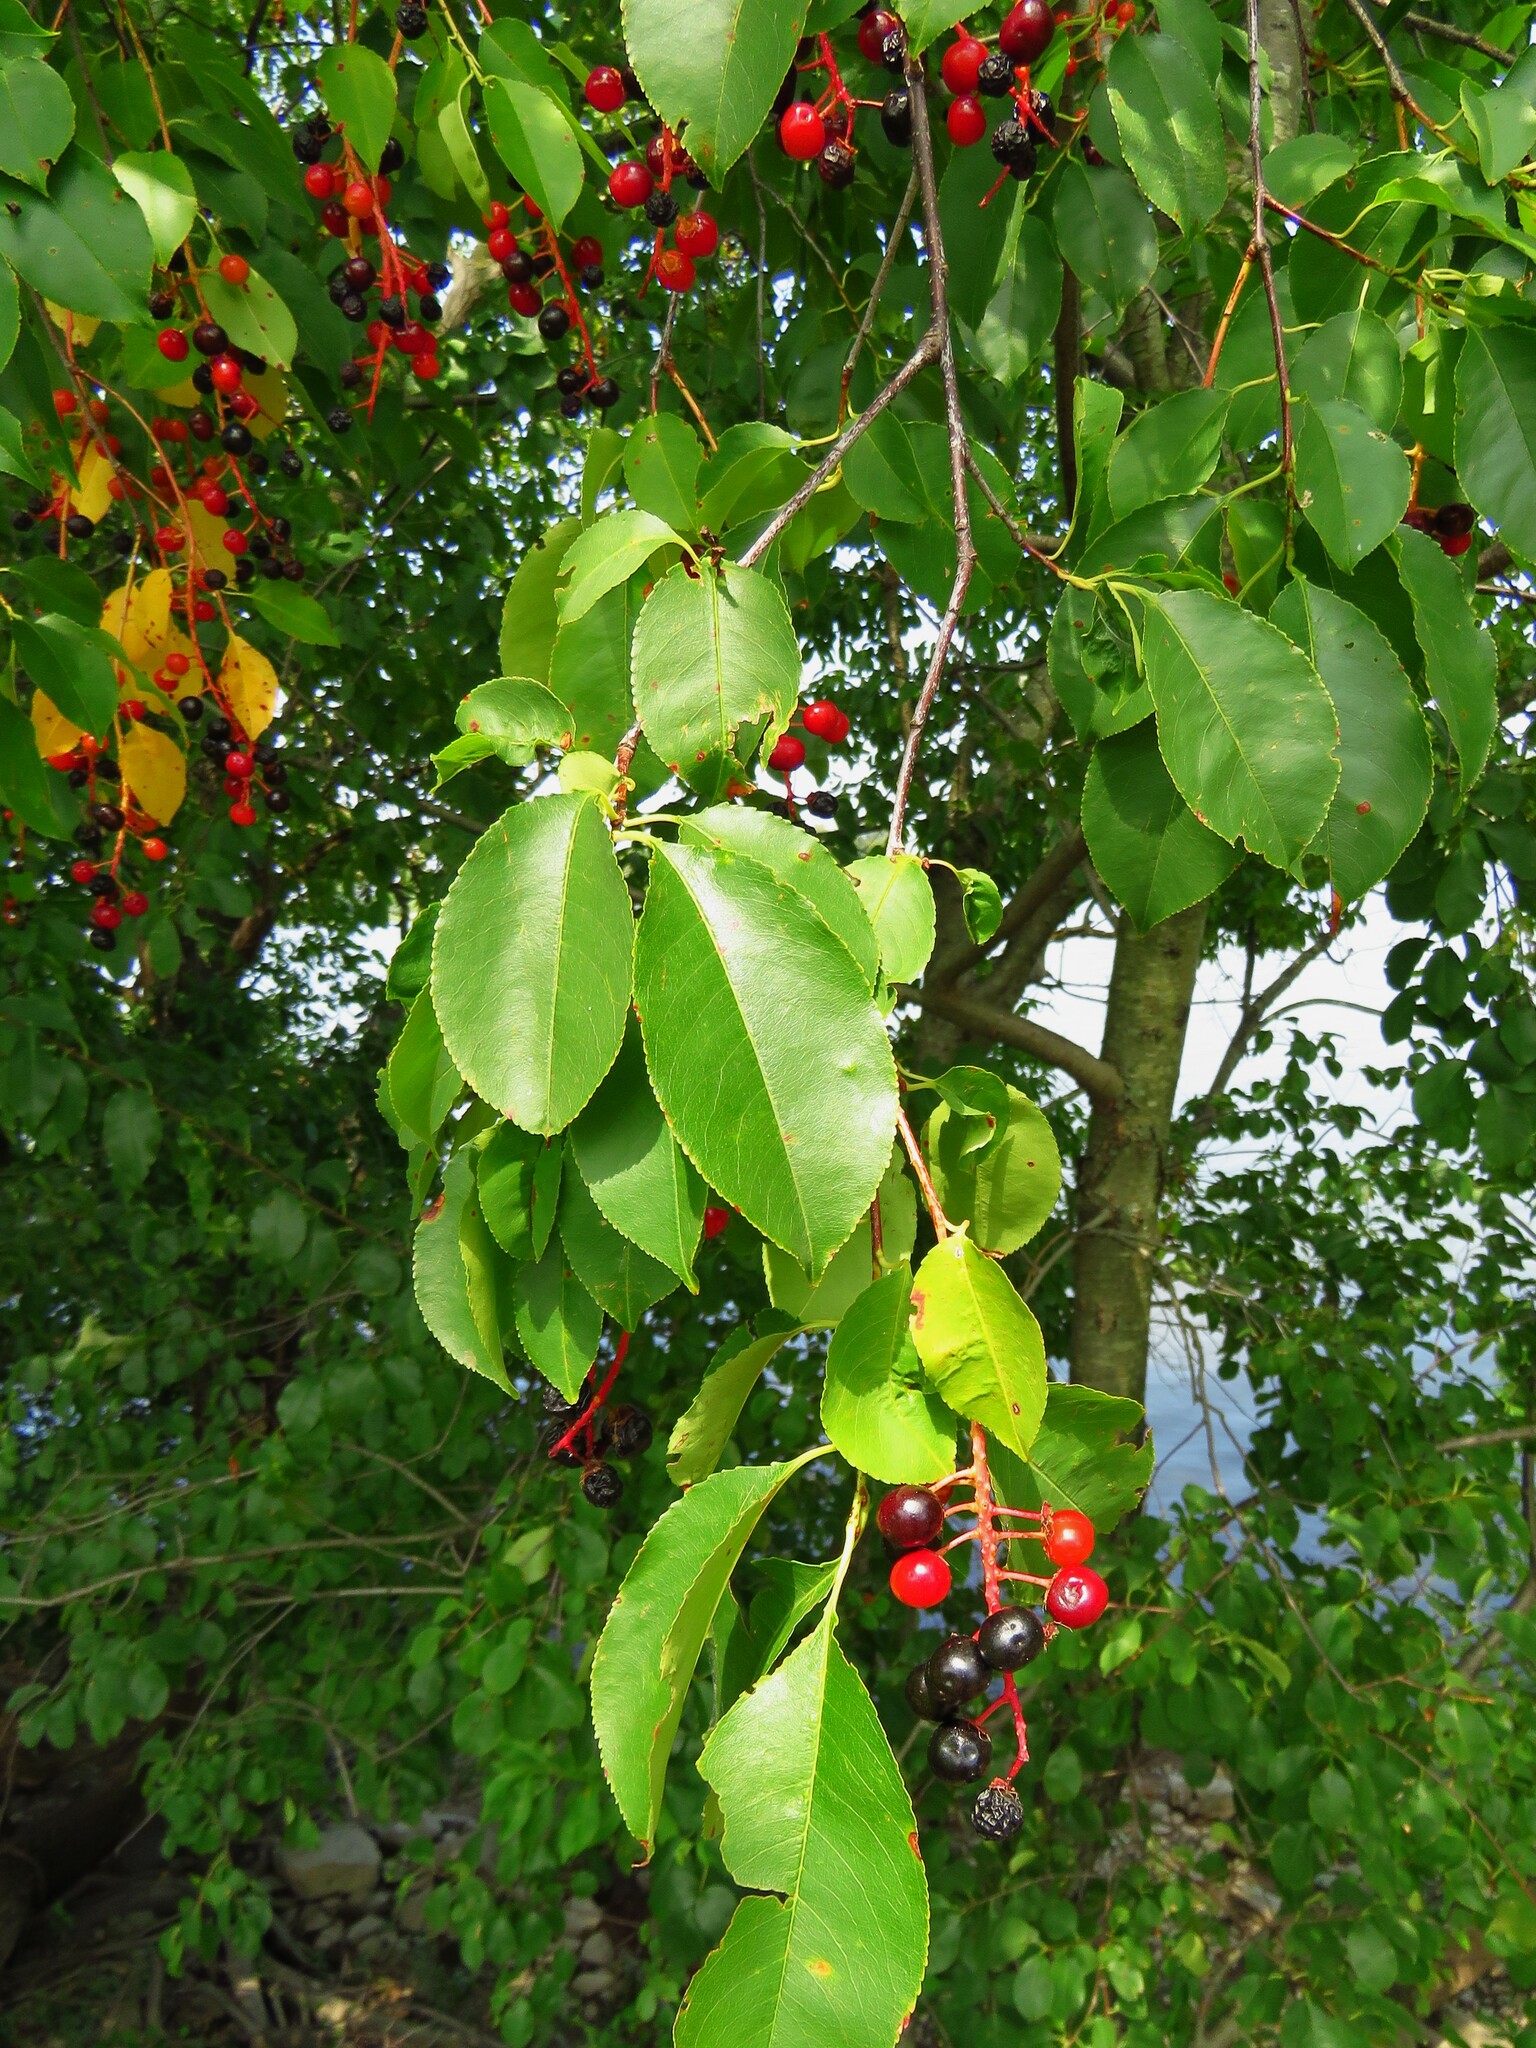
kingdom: Plantae
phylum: Tracheophyta
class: Magnoliopsida
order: Rosales
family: Rosaceae
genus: Prunus
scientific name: Prunus serotina
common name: Black cherry
